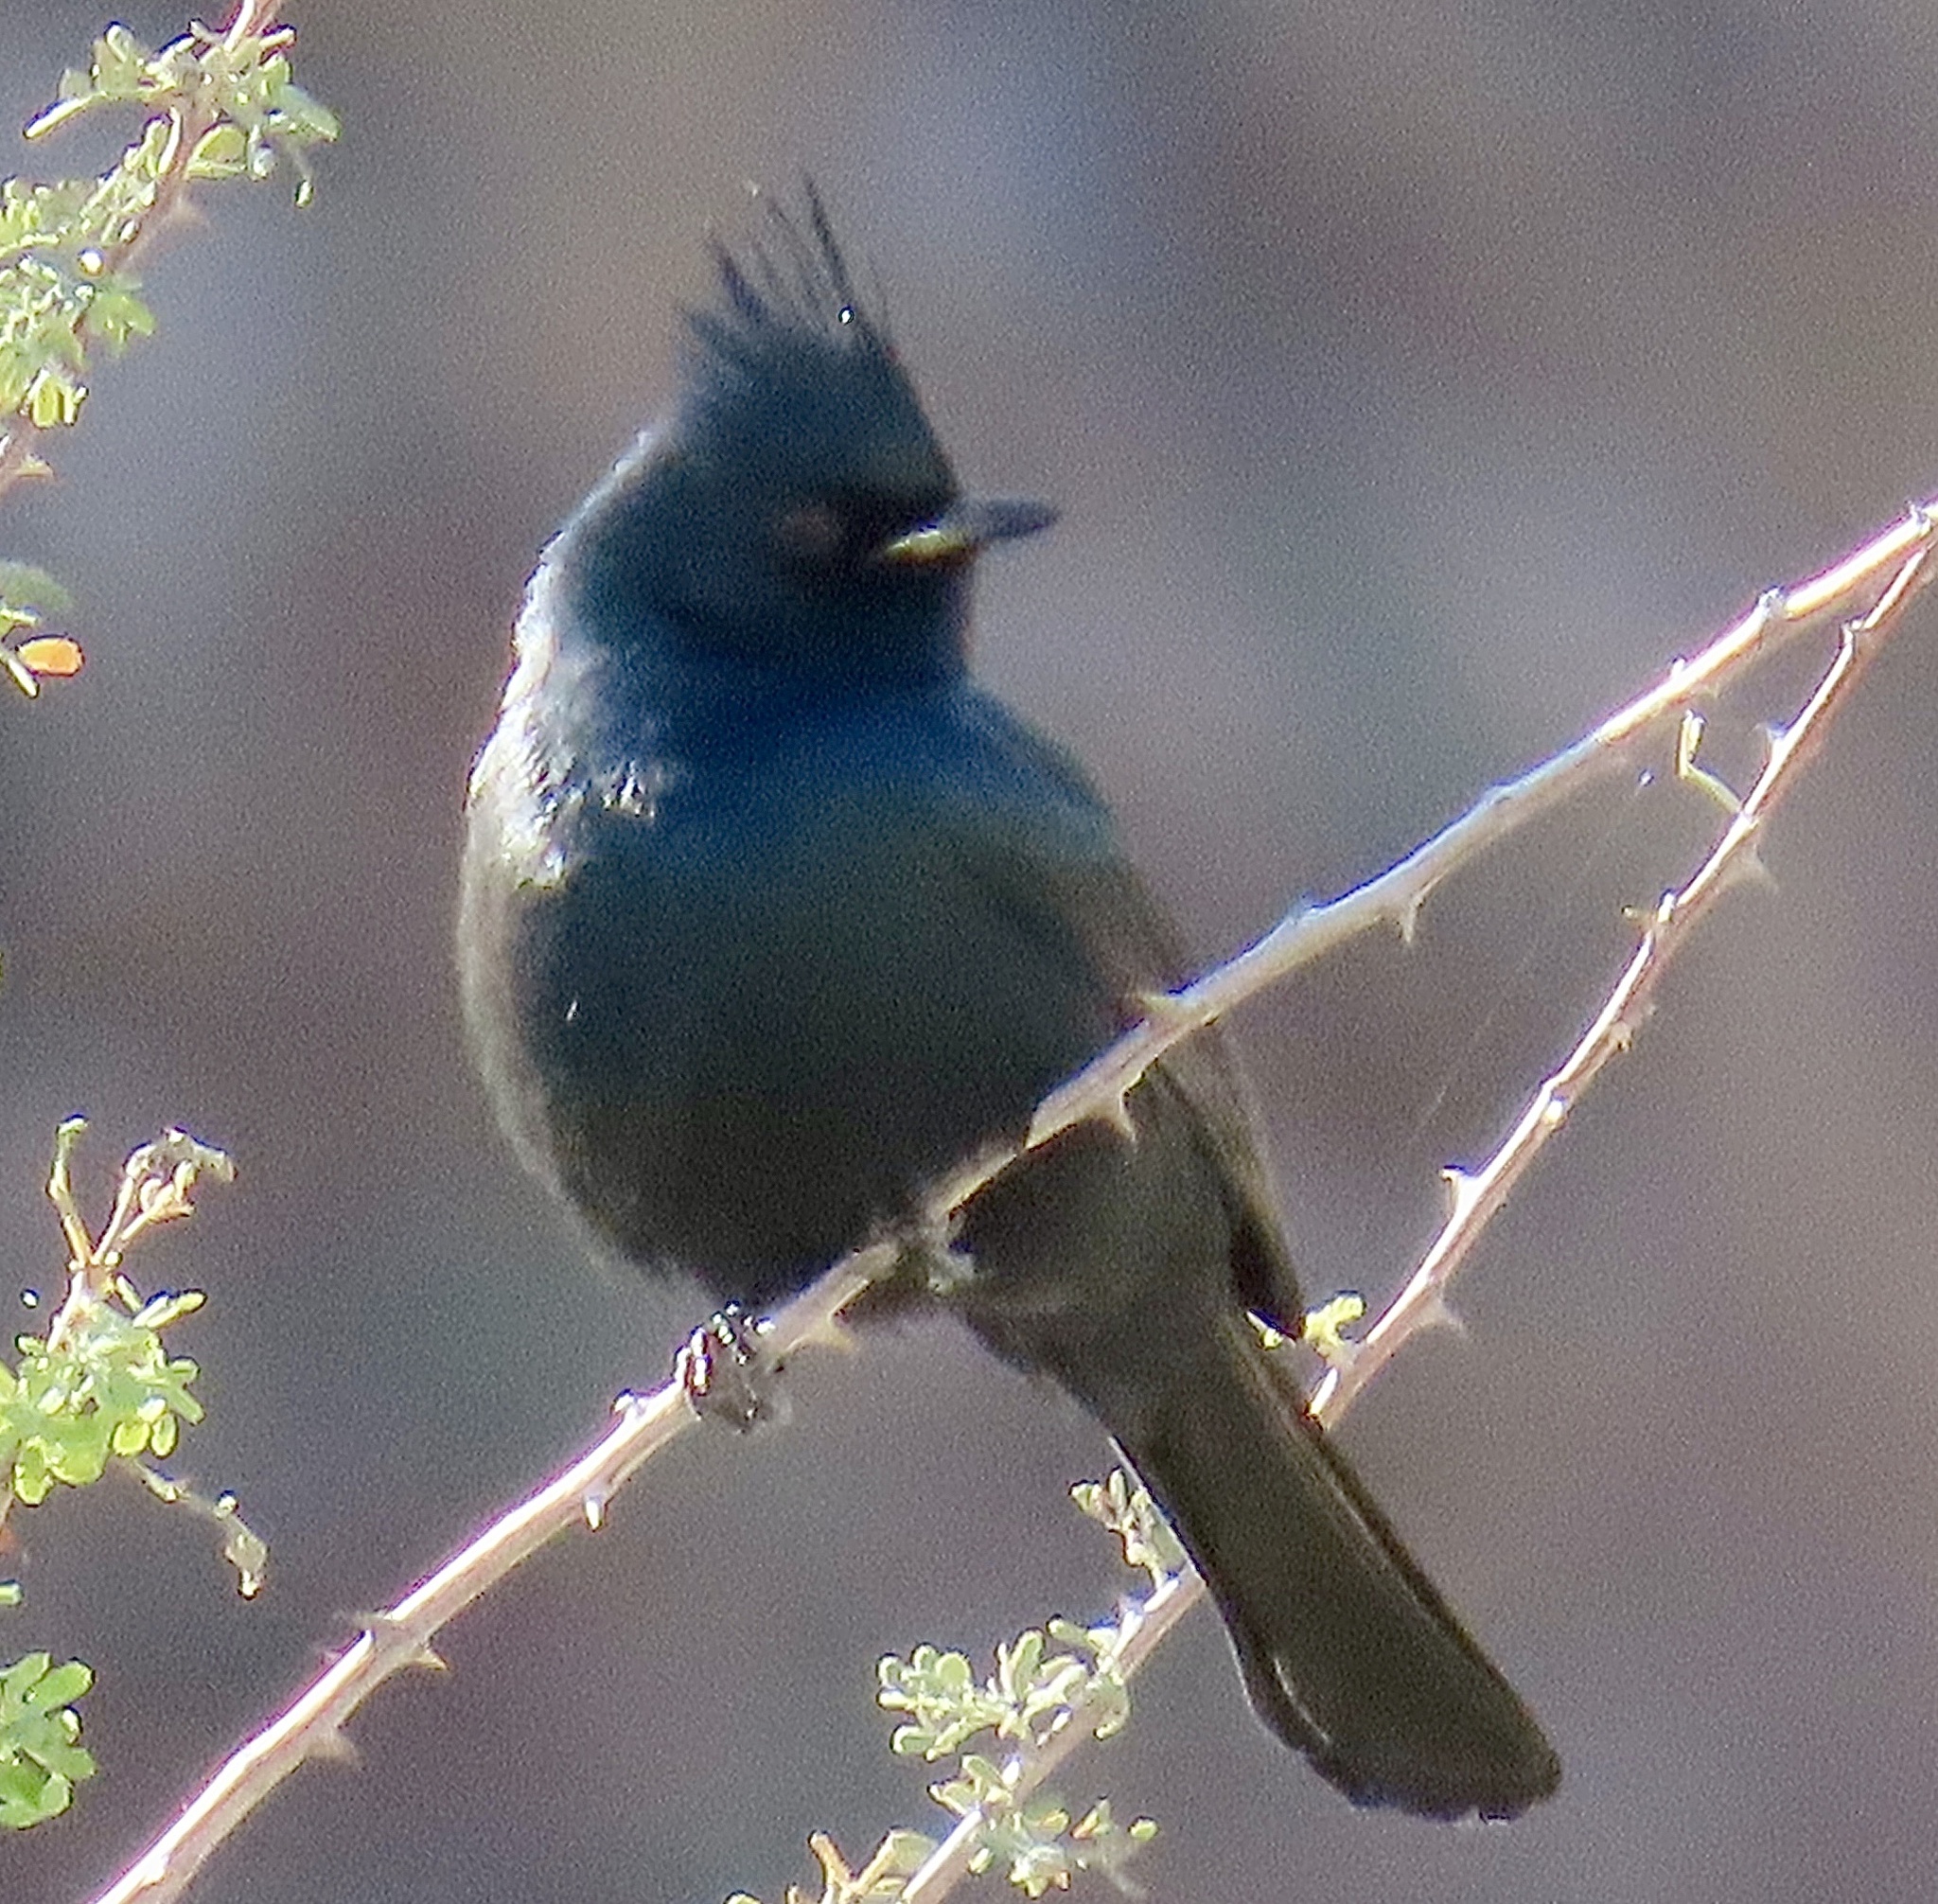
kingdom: Animalia
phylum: Chordata
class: Aves
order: Passeriformes
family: Ptilogonatidae
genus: Phainopepla
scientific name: Phainopepla nitens
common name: Phainopepla
